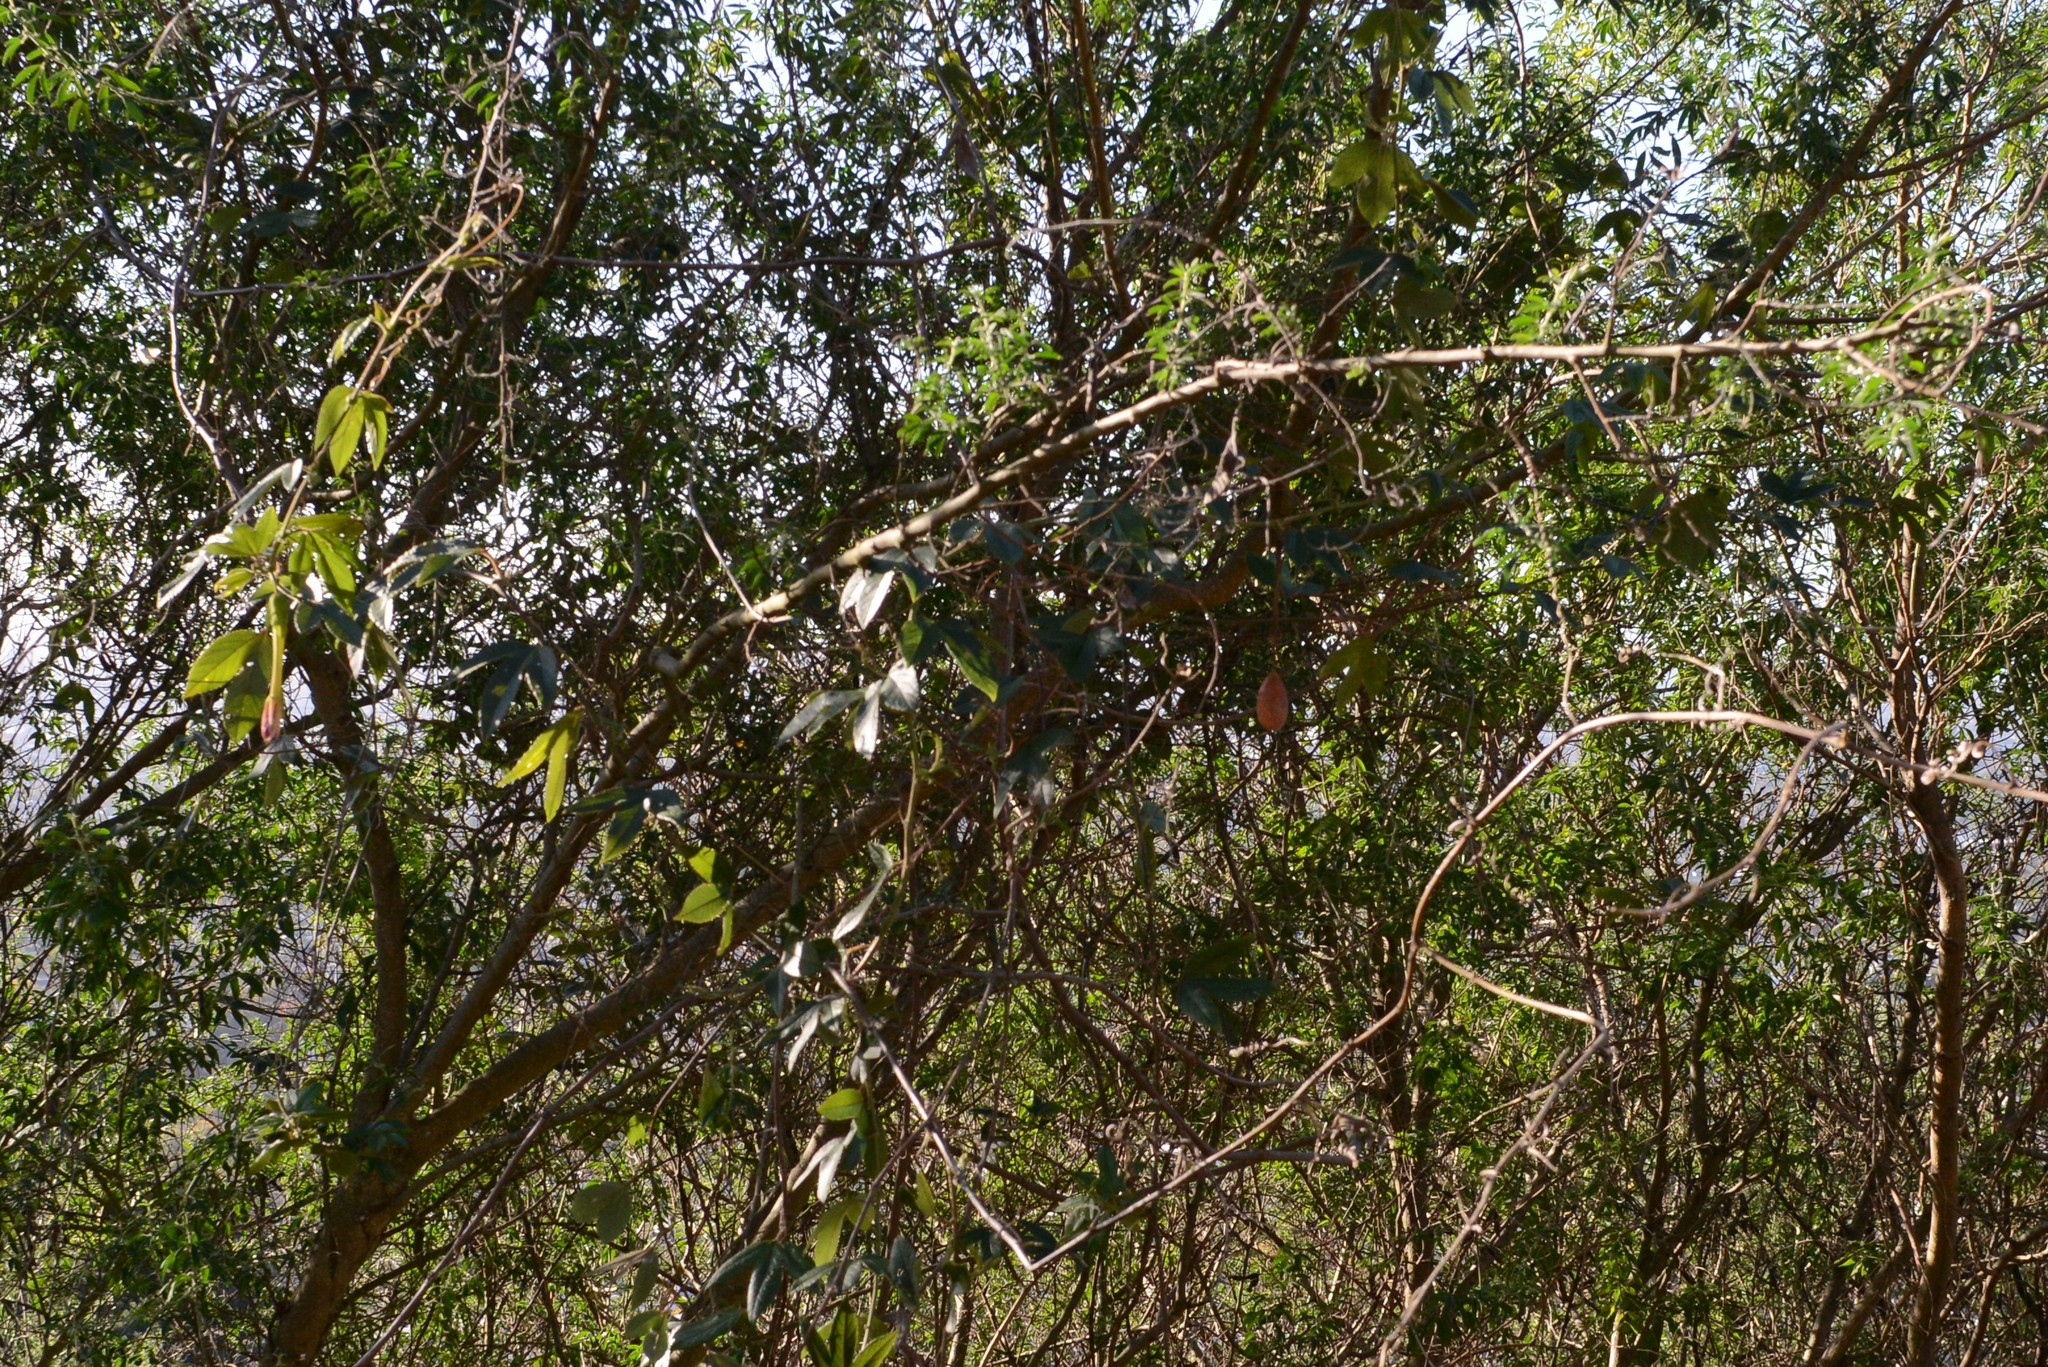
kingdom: Plantae
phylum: Tracheophyta
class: Magnoliopsida
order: Malpighiales
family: Passifloraceae
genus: Passiflora
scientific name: Passiflora tripartita
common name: Banana poka
